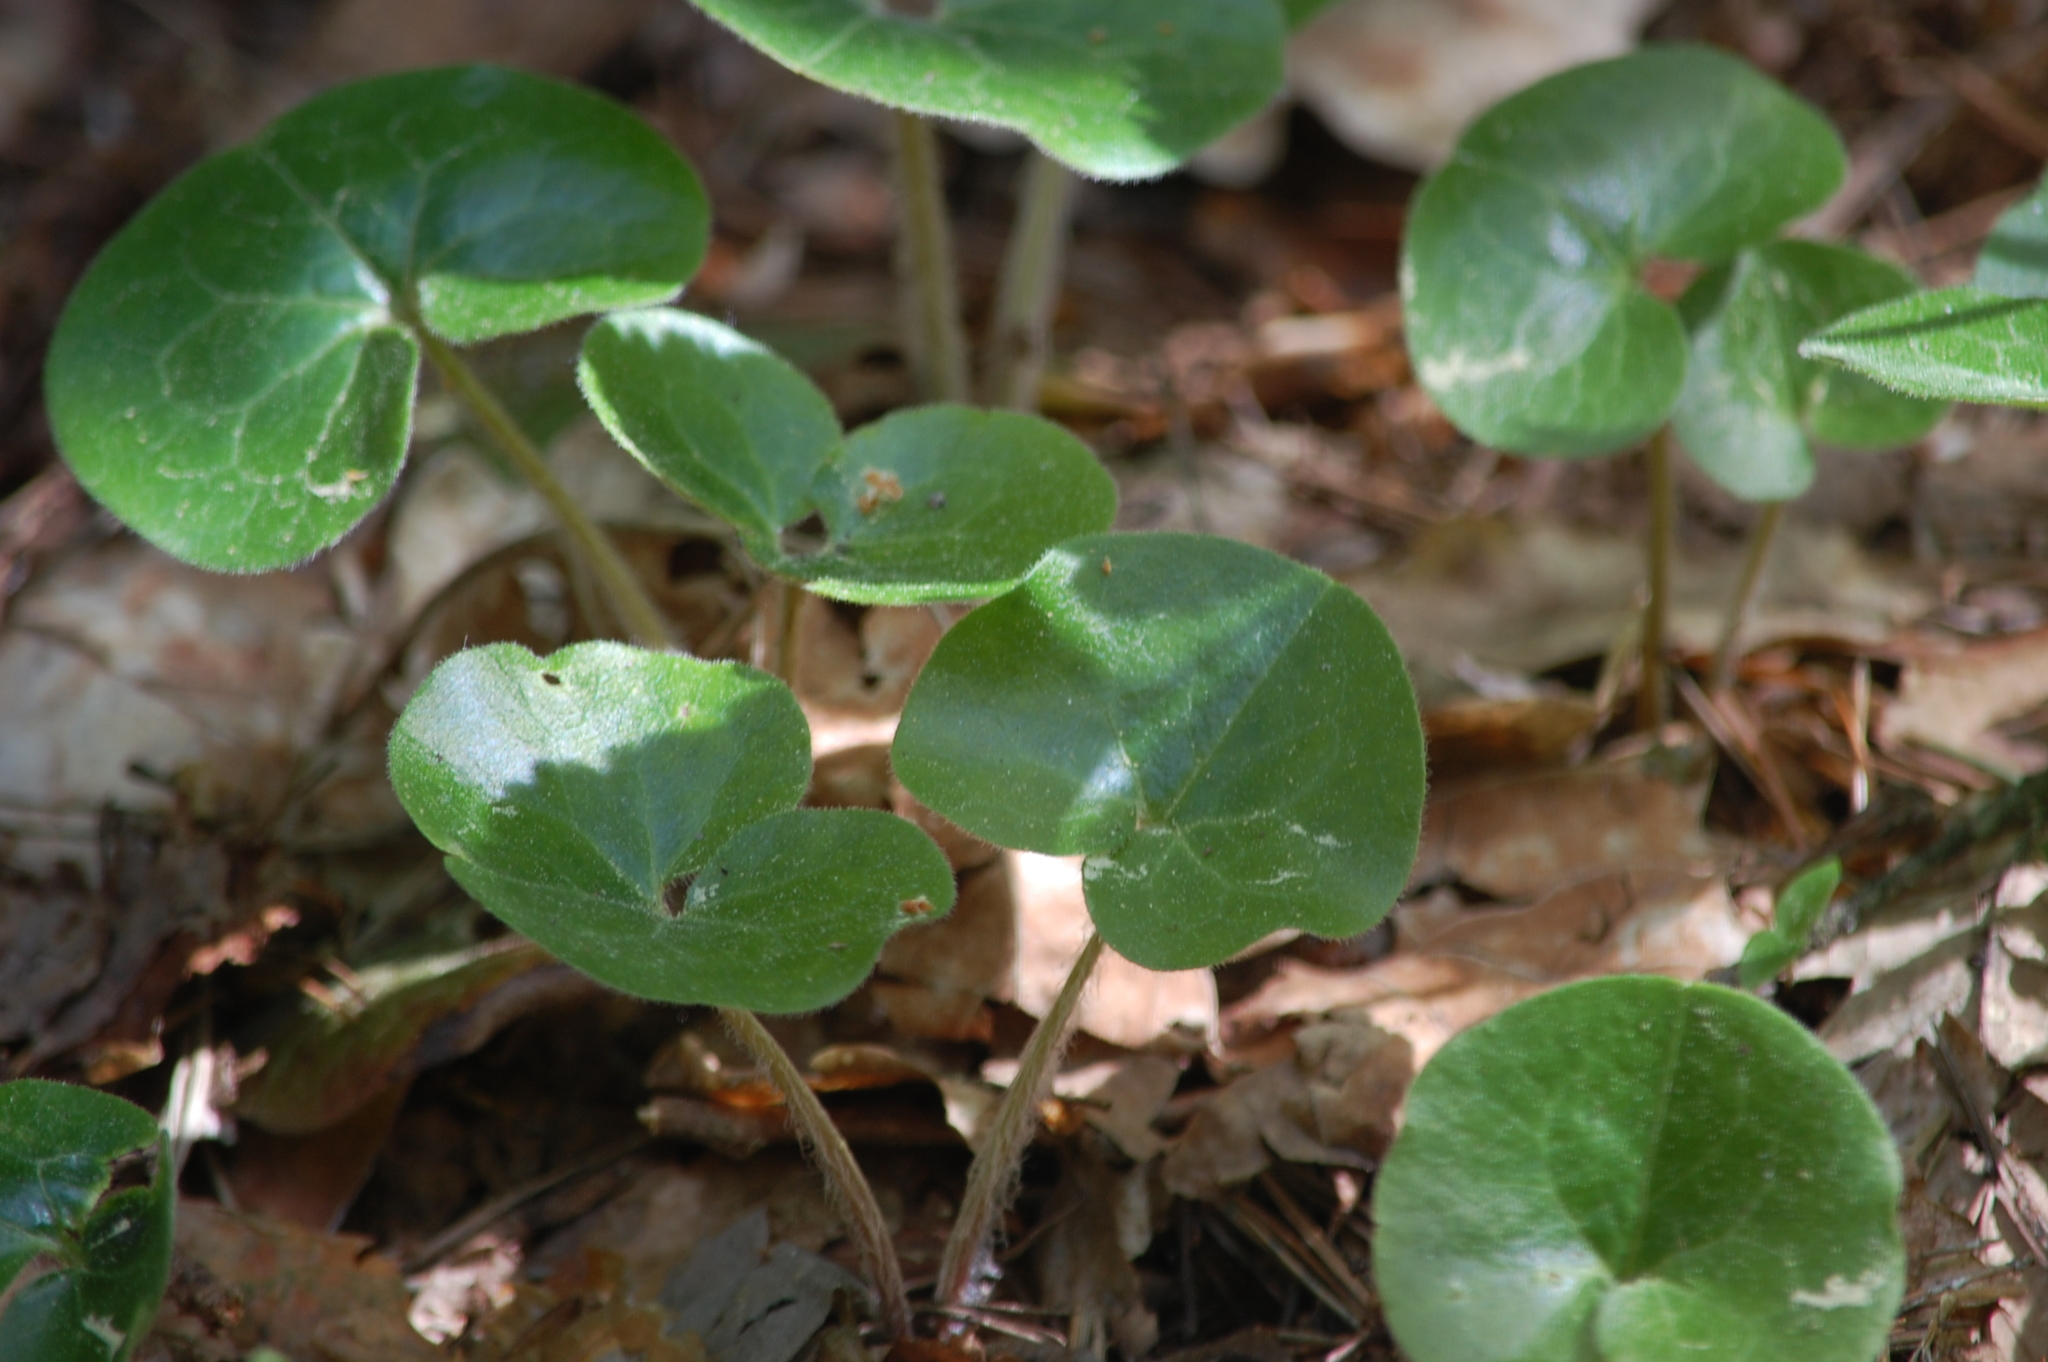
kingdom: Plantae
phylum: Tracheophyta
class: Magnoliopsida
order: Piperales
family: Aristolochiaceae
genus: Asarum
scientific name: Asarum europaeum
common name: Asarabacca
